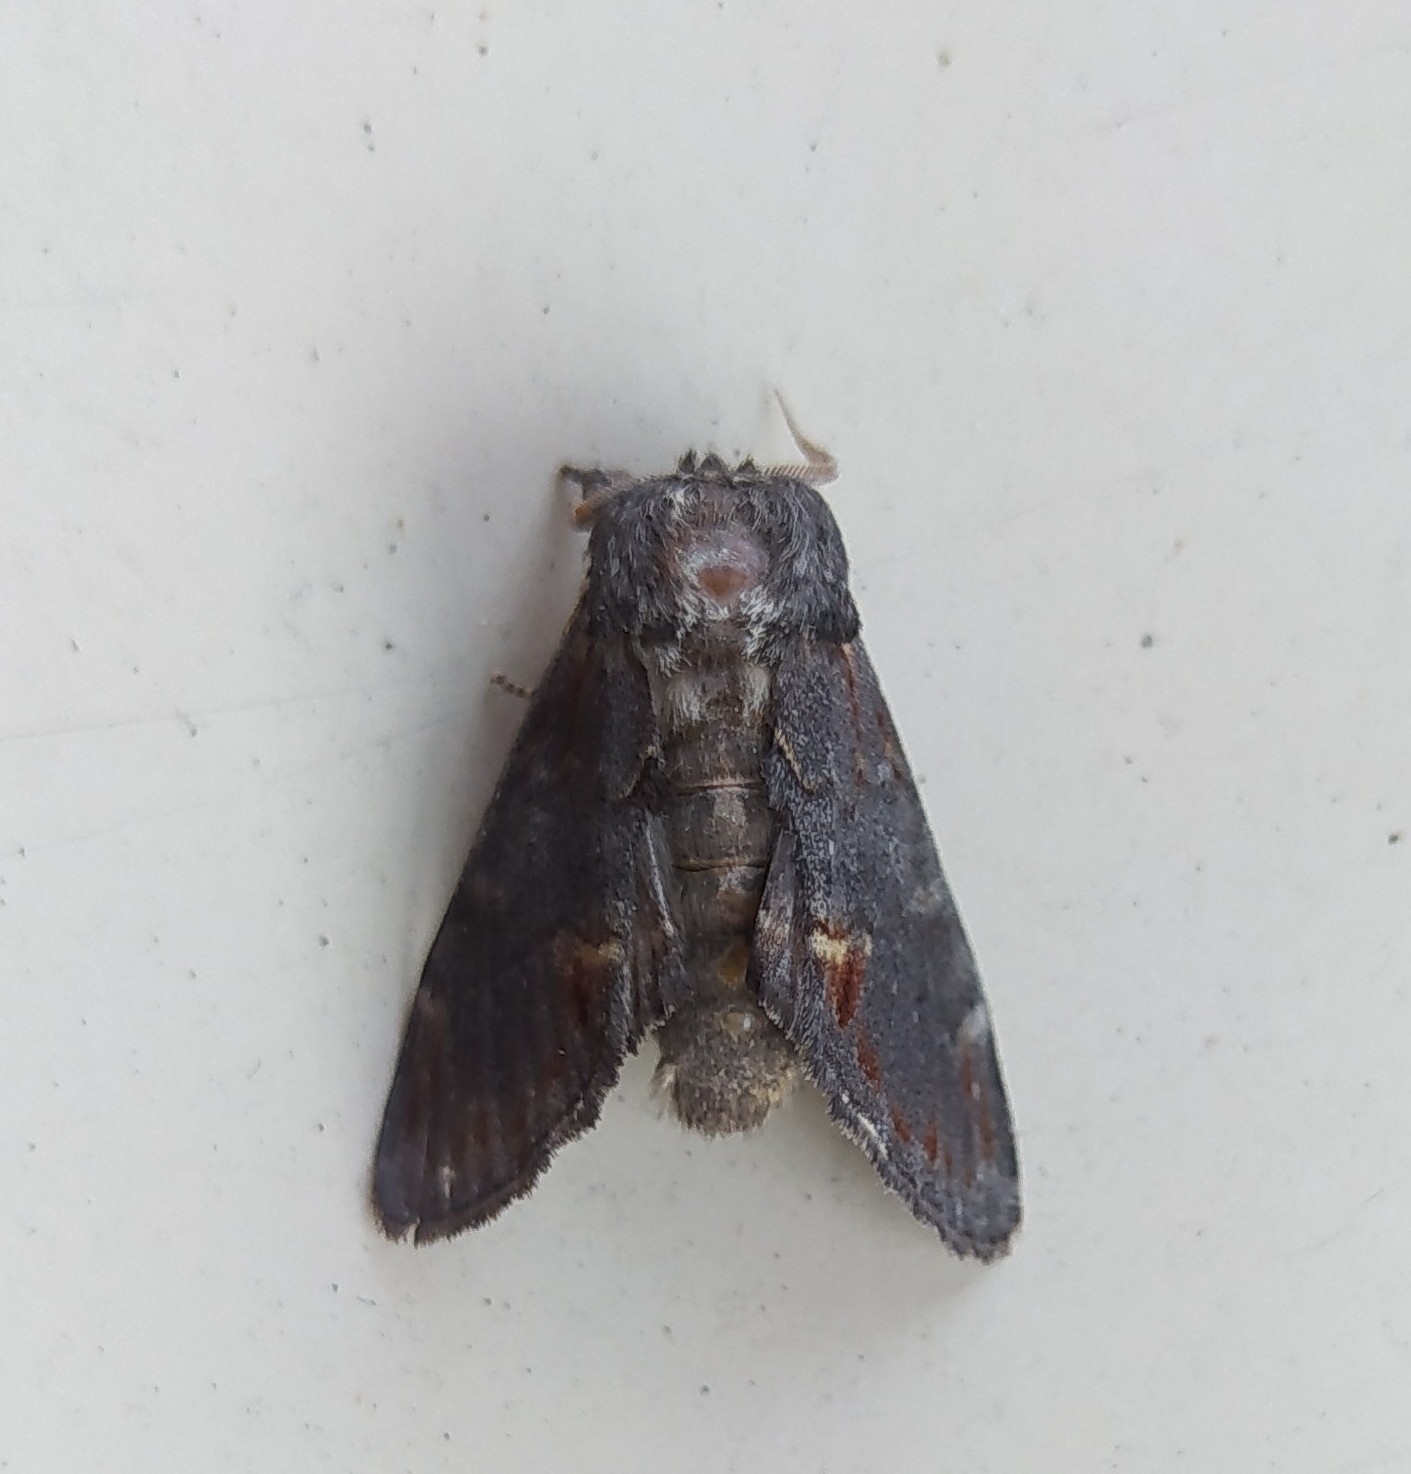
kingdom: Animalia
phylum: Arthropoda
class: Insecta
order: Lepidoptera
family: Notodontidae
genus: Notodonta
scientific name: Notodonta dromedarius
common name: Iron prominent
